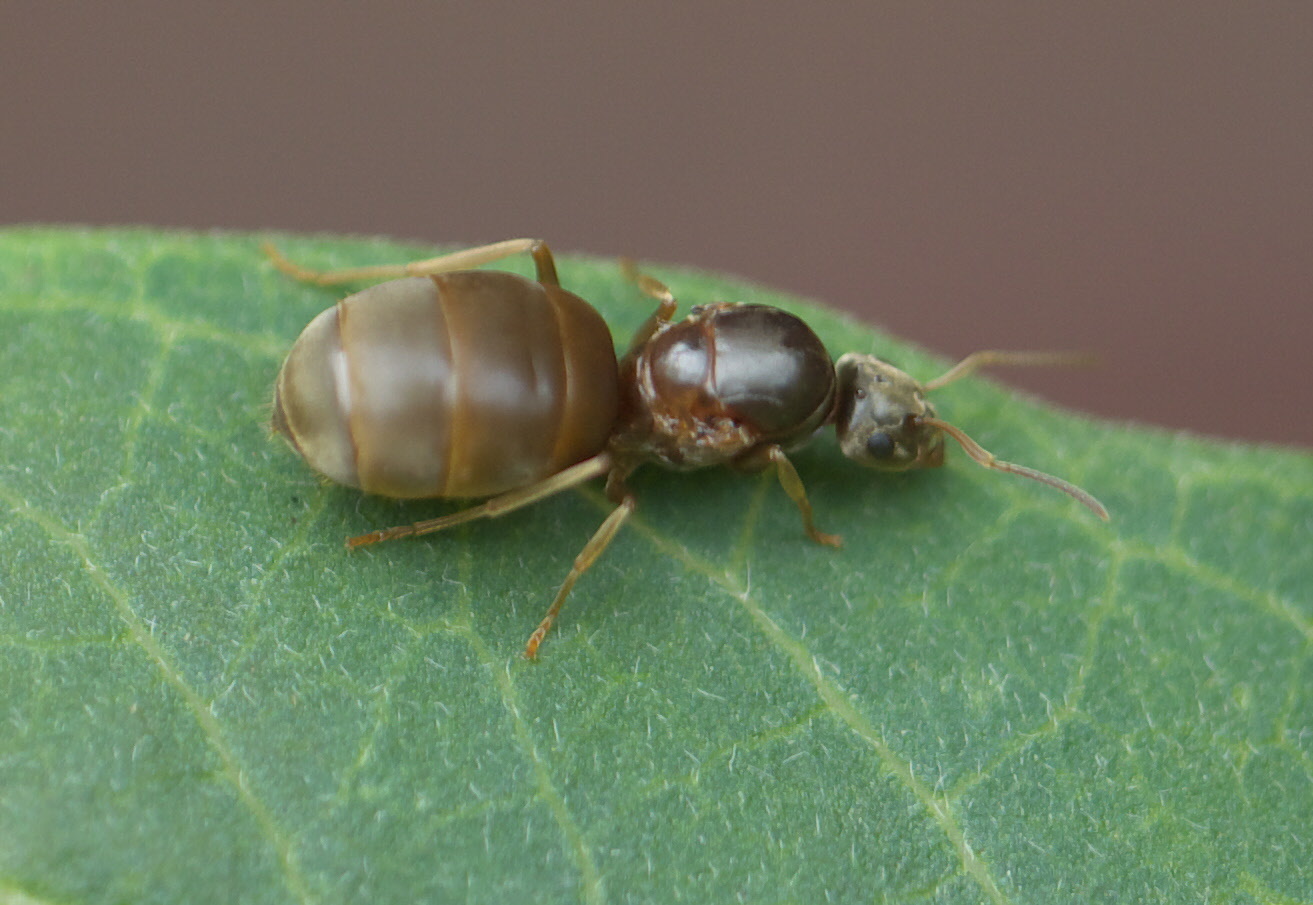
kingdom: Animalia
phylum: Arthropoda
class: Insecta
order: Hymenoptera
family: Formicidae
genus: Lasius
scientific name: Lasius neoniger
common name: Turfgrass ant
